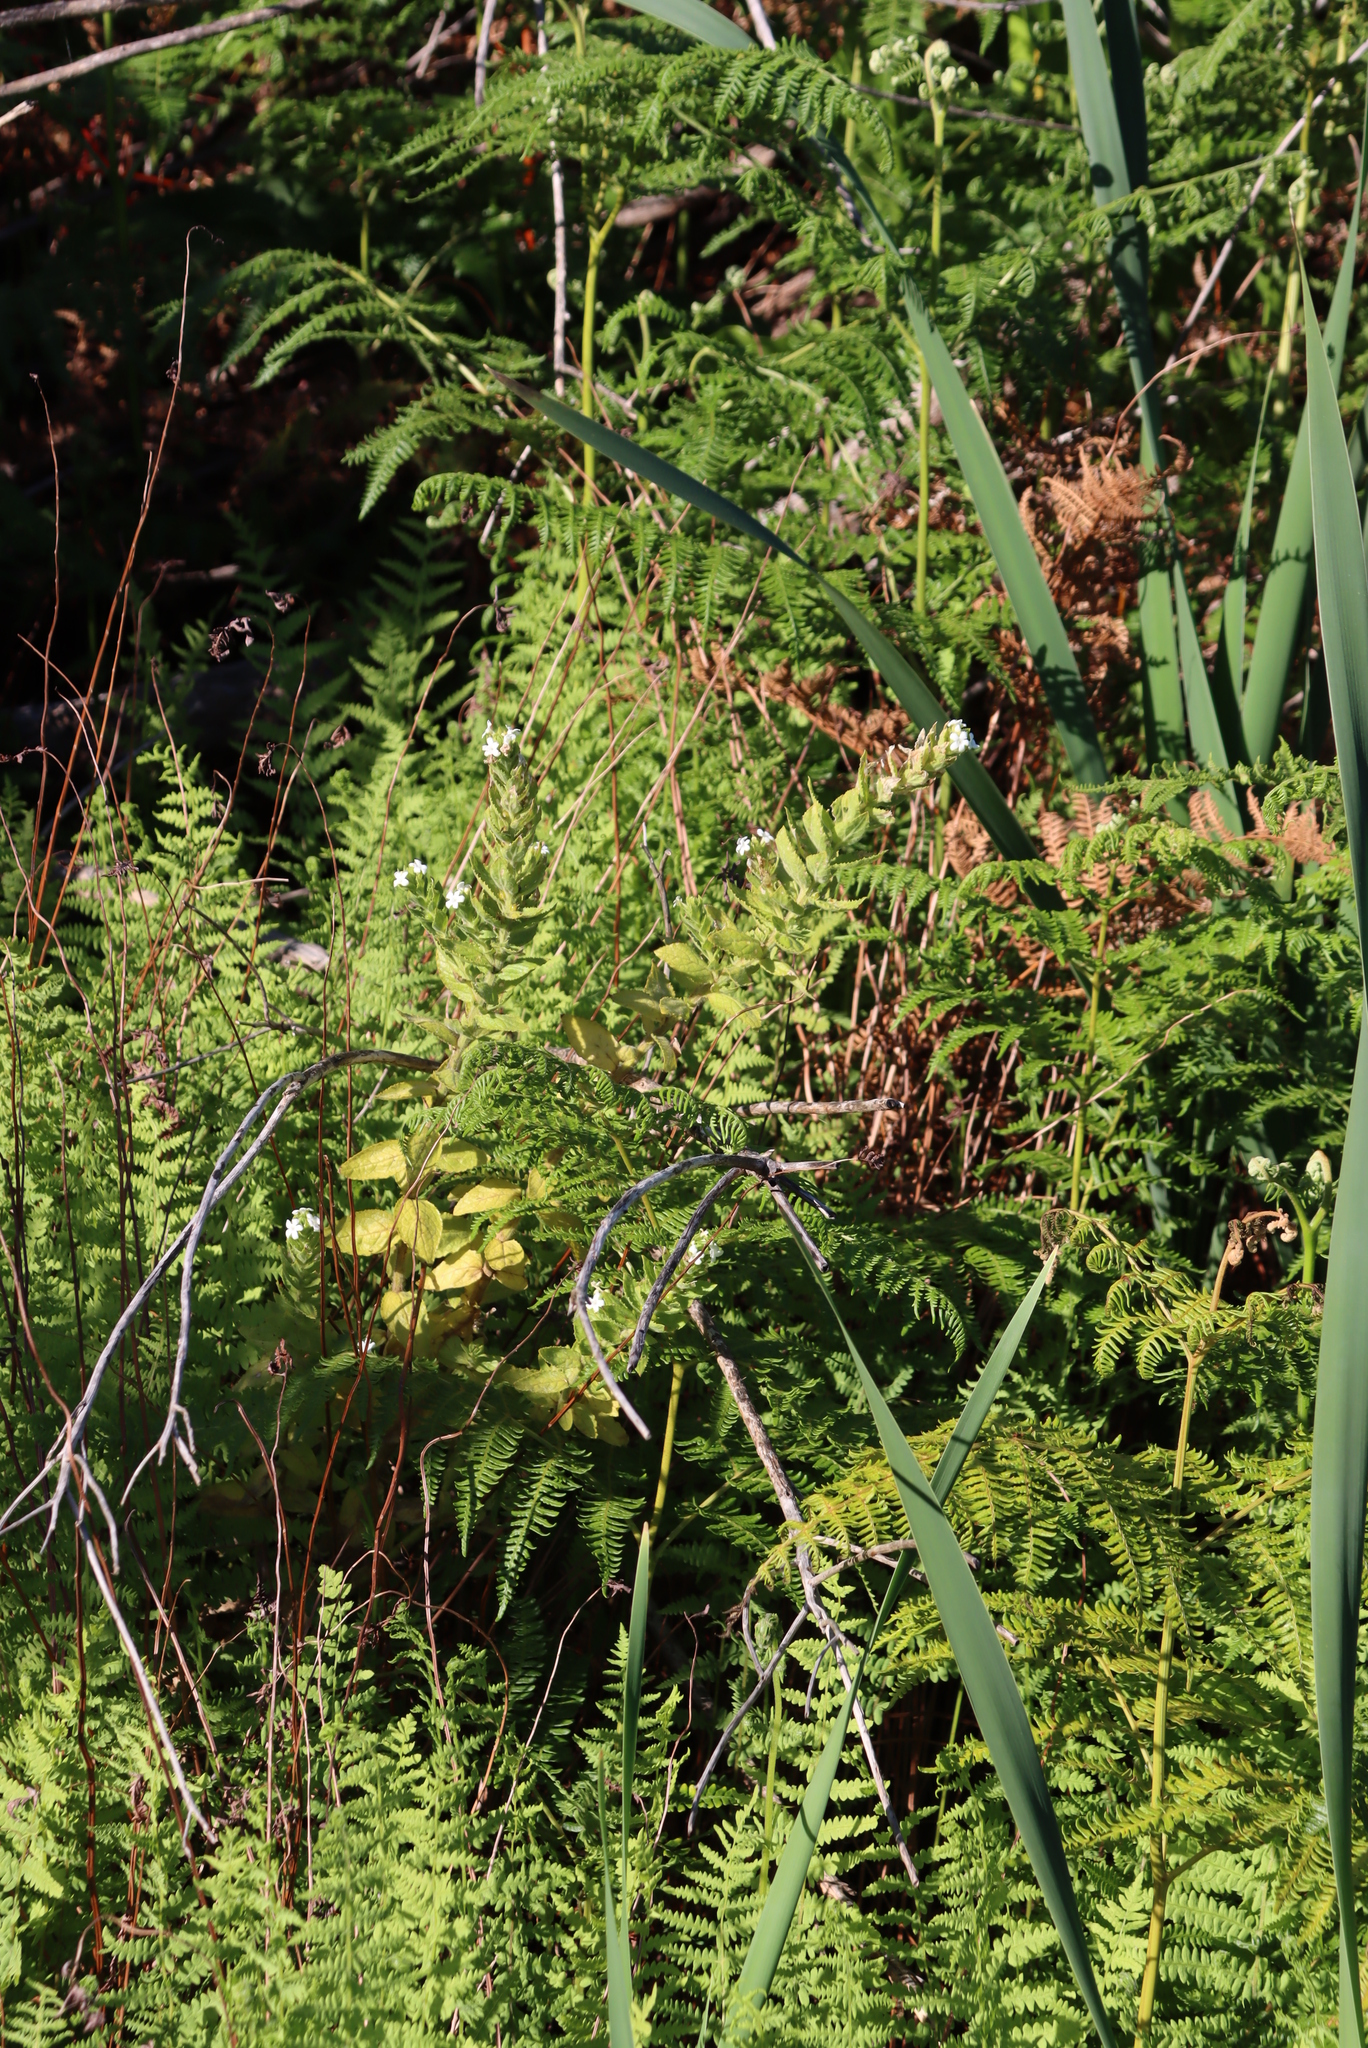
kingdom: Plantae
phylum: Tracheophyta
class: Magnoliopsida
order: Lamiales
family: Scrophulariaceae
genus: Oftia
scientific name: Oftia africana
